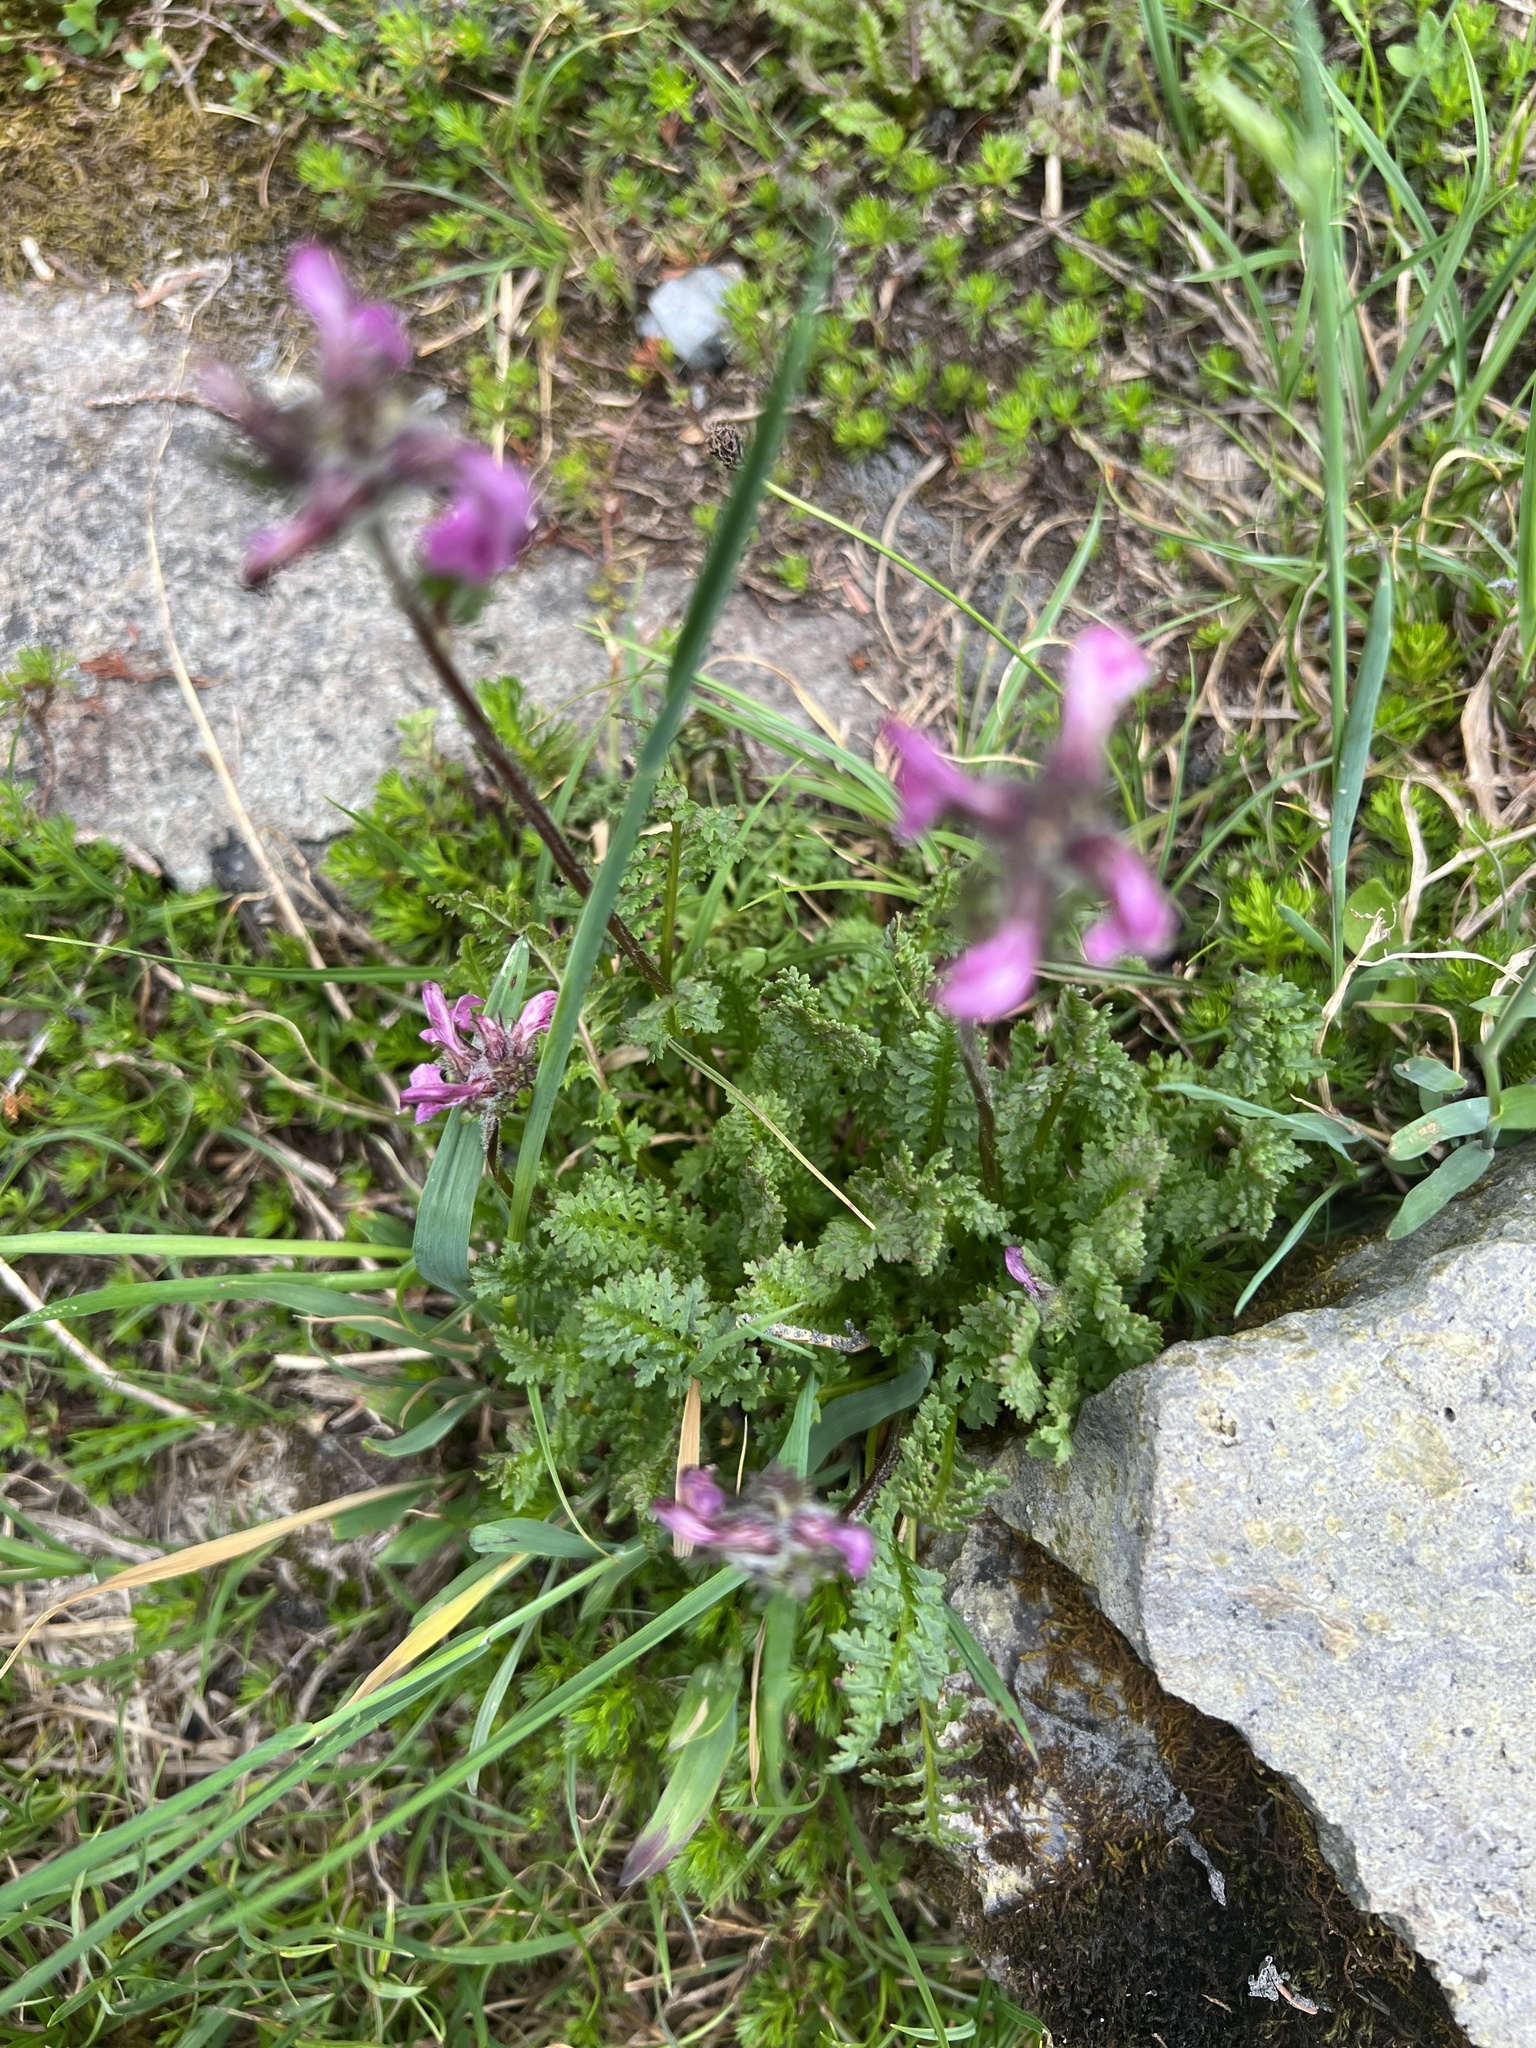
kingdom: Plantae
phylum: Tracheophyta
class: Magnoliopsida
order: Lamiales
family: Orobanchaceae
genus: Pedicularis
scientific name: Pedicularis ornithorhynchos
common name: Bird's-beak lousewort
